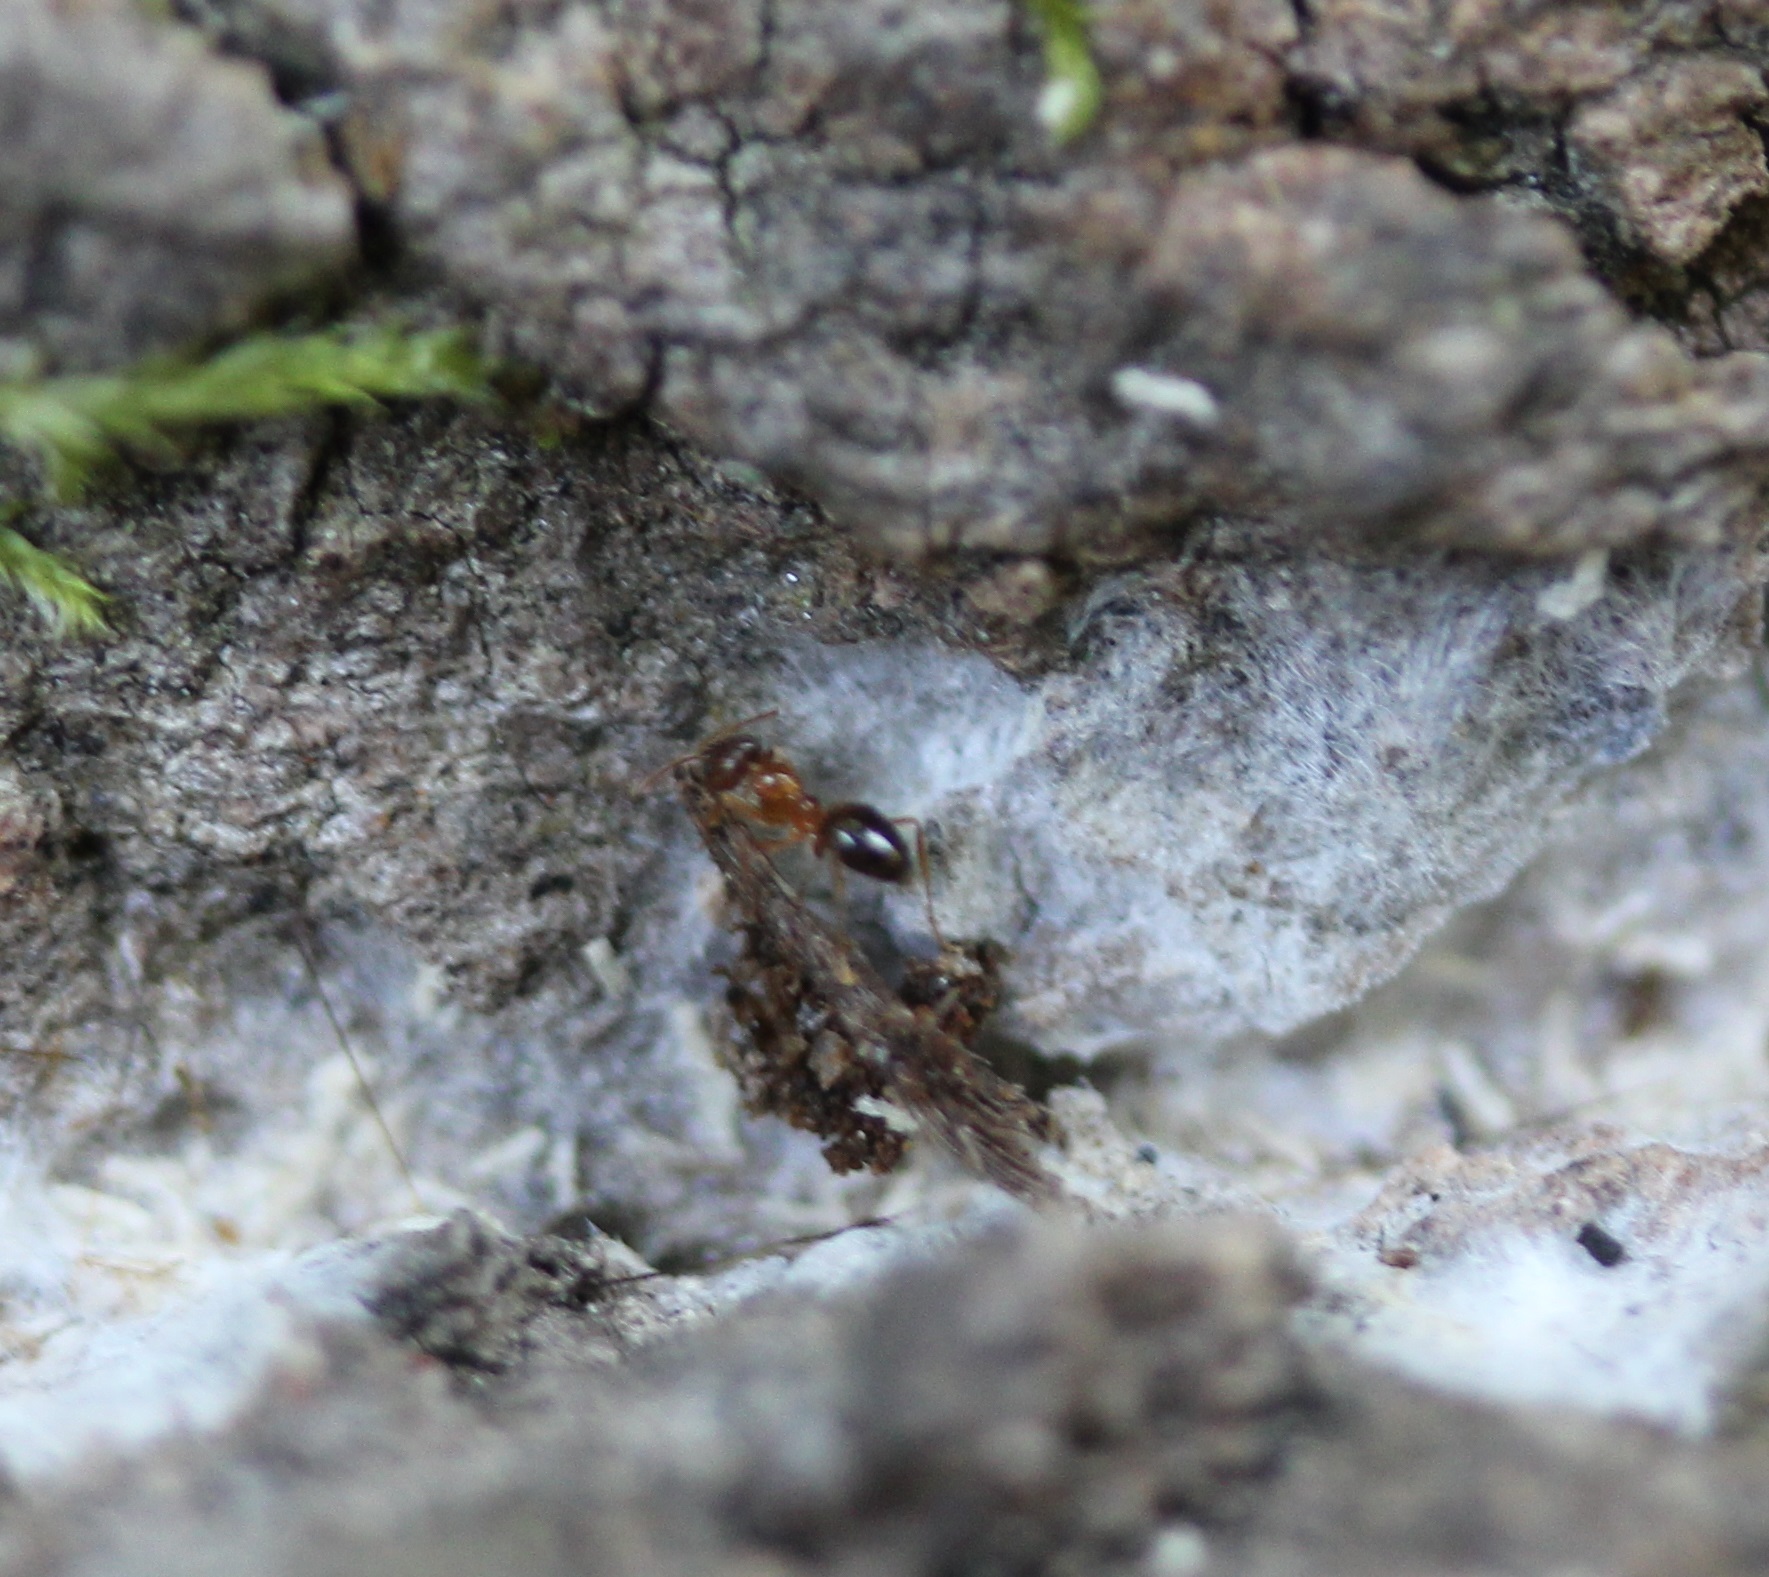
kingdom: Animalia
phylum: Arthropoda
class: Insecta
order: Hymenoptera
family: Formicidae
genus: Paratrechina
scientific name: Paratrechina flavipes
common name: Eastern asian formicine ant
